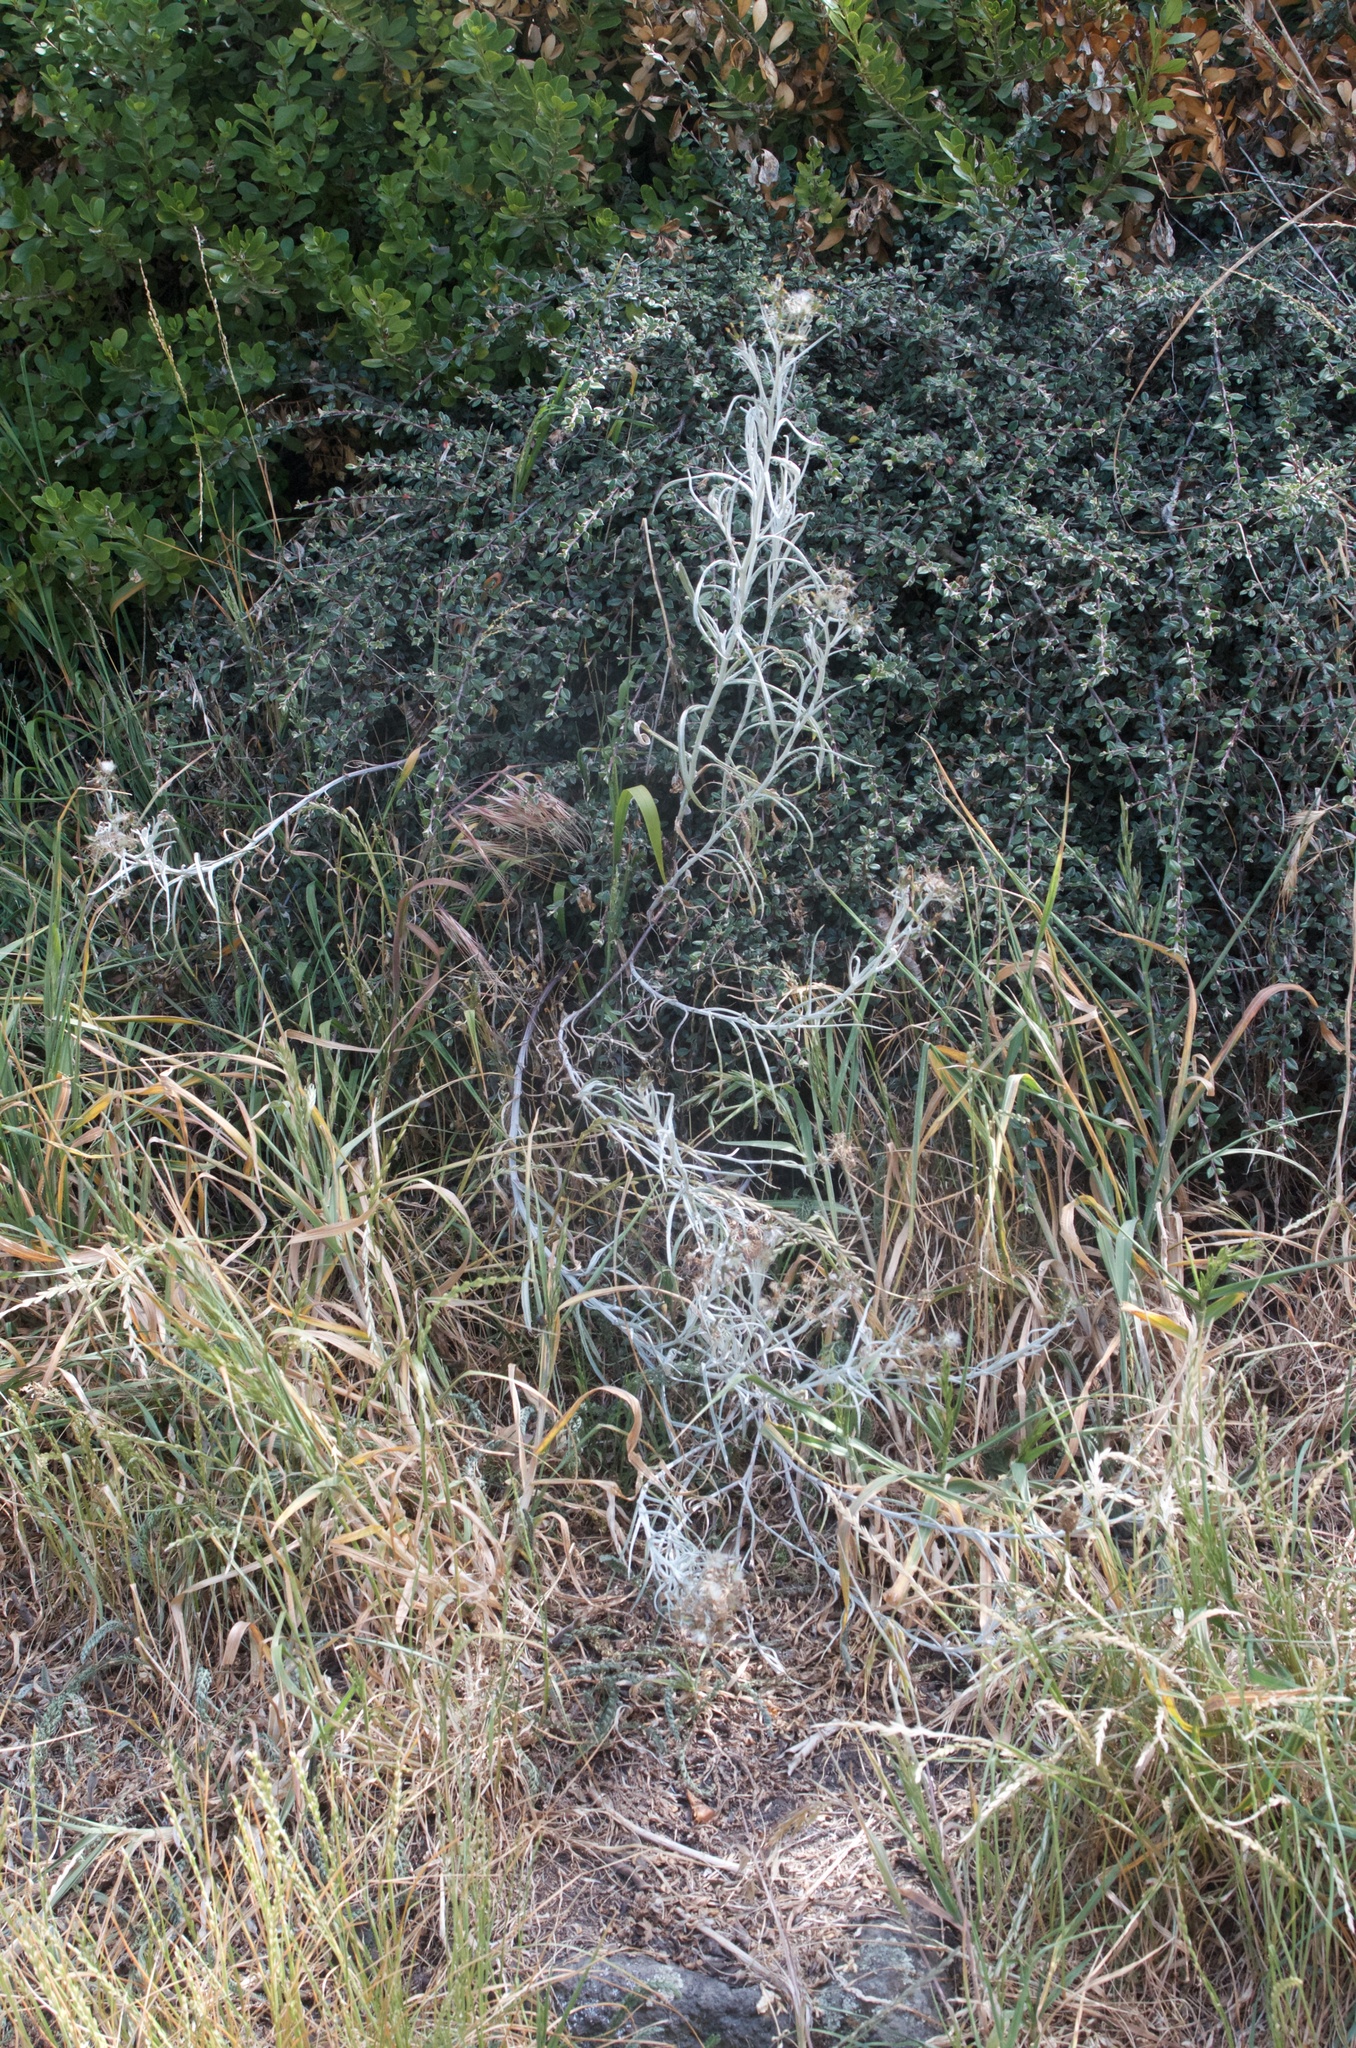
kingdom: Plantae
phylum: Tracheophyta
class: Magnoliopsida
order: Asterales
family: Asteraceae
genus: Senecio
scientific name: Senecio quadridentatus
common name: Cotton fireweed
